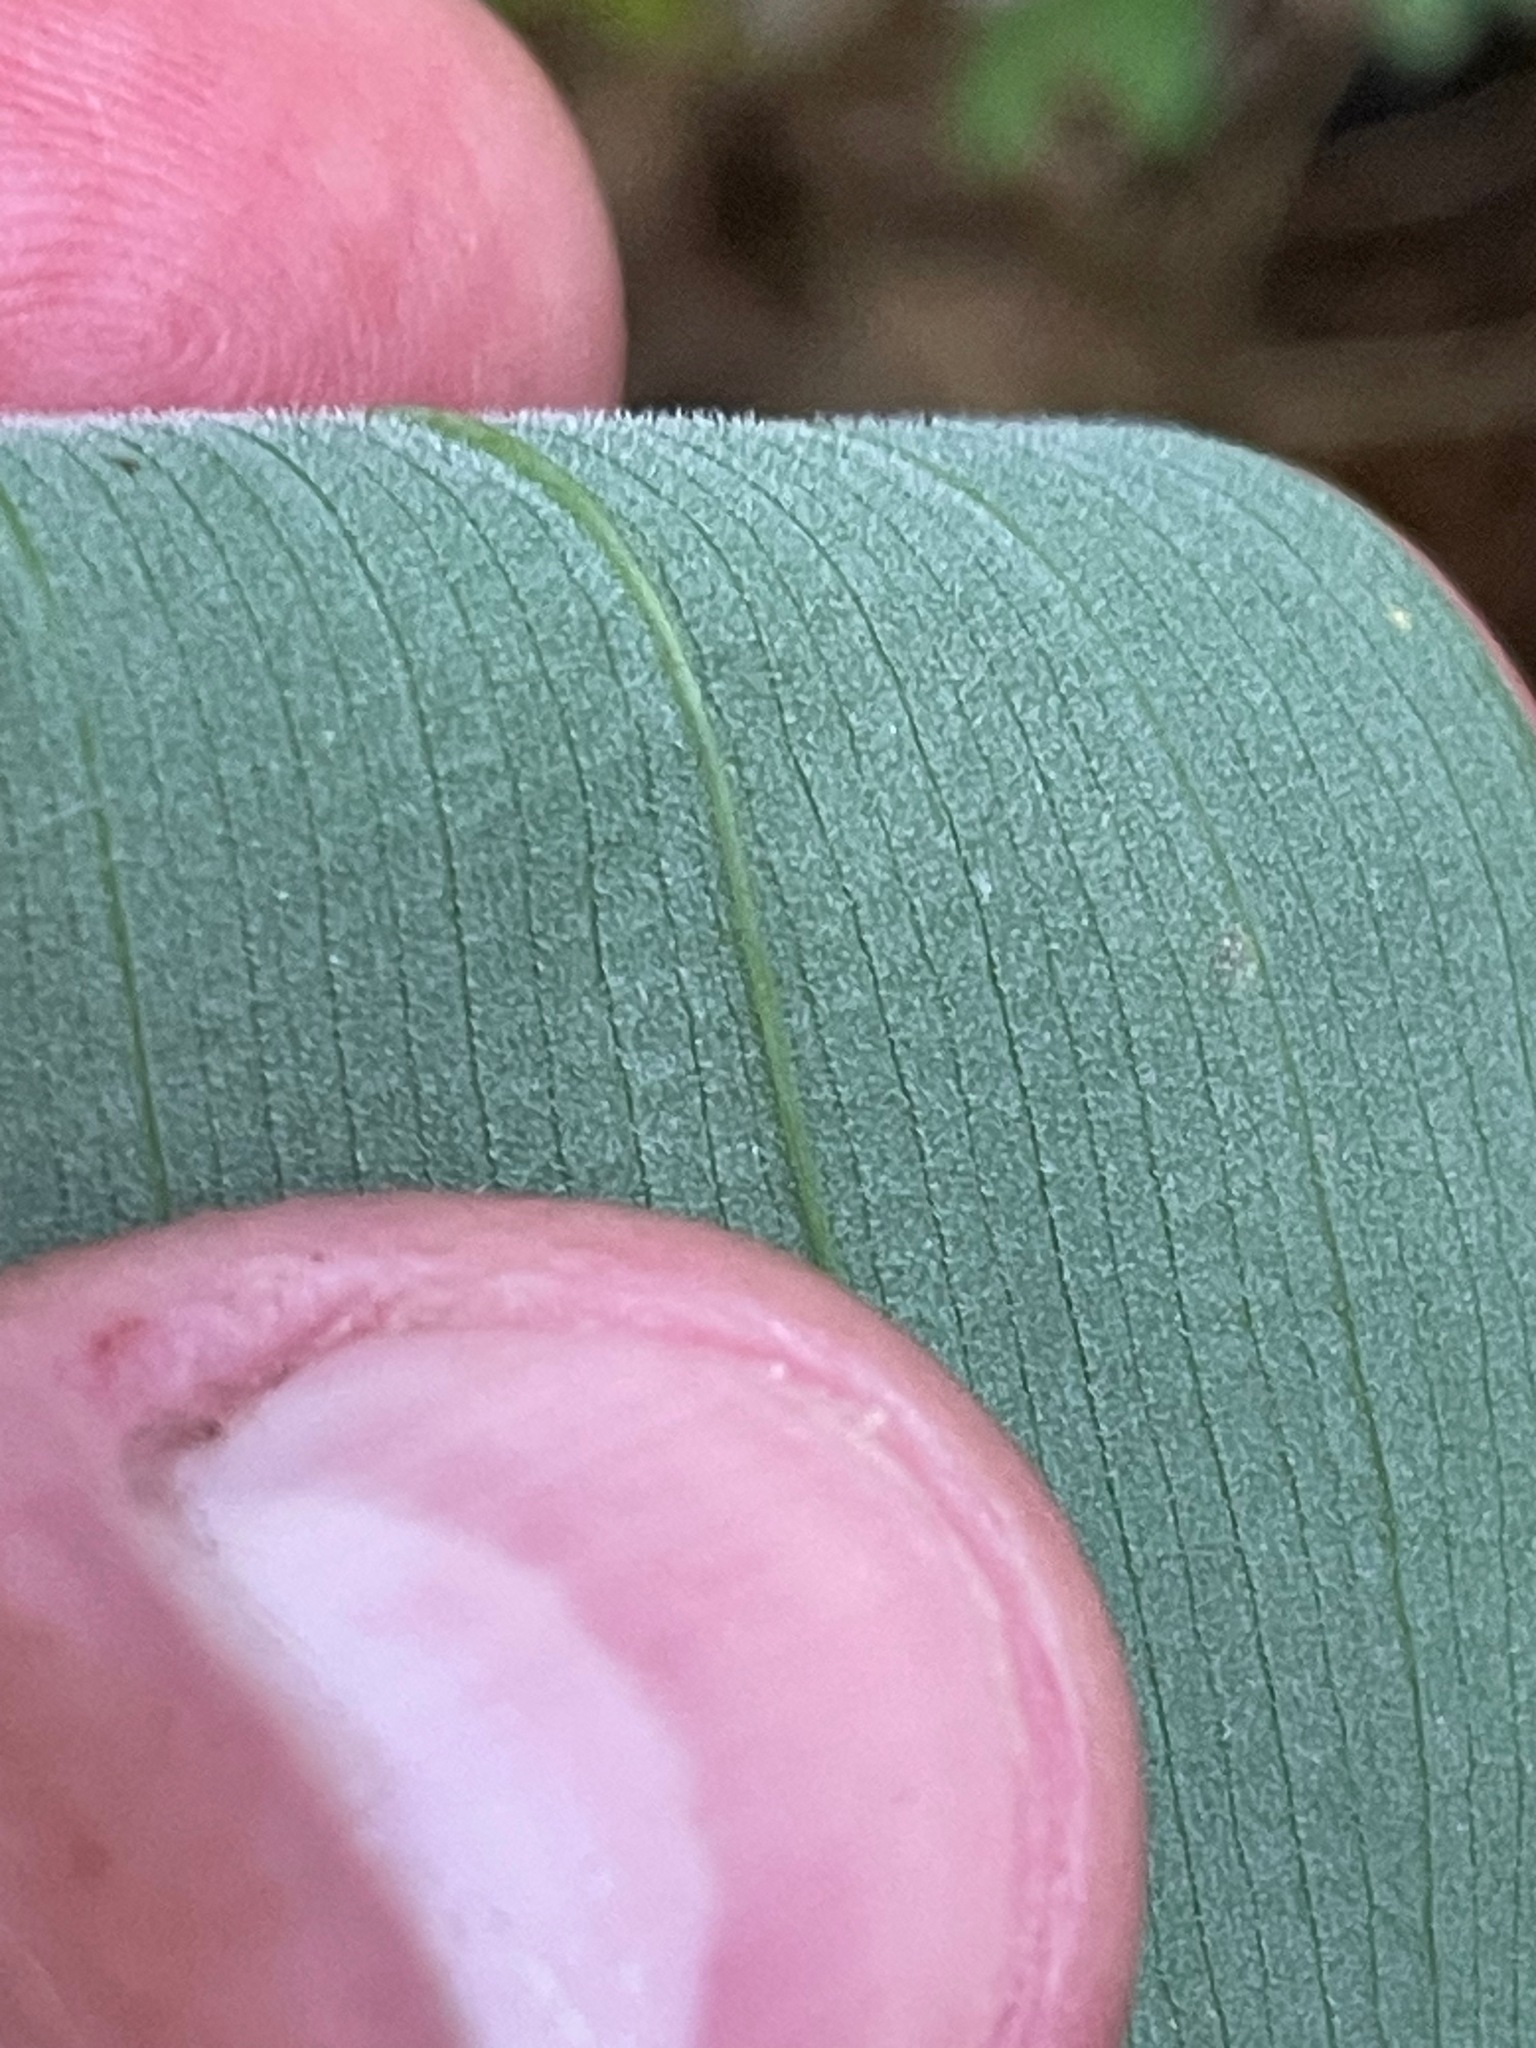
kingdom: Plantae
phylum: Tracheophyta
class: Liliopsida
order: Liliales
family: Colchicaceae
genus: Uvularia
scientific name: Uvularia grandiflora
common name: Bellwort
